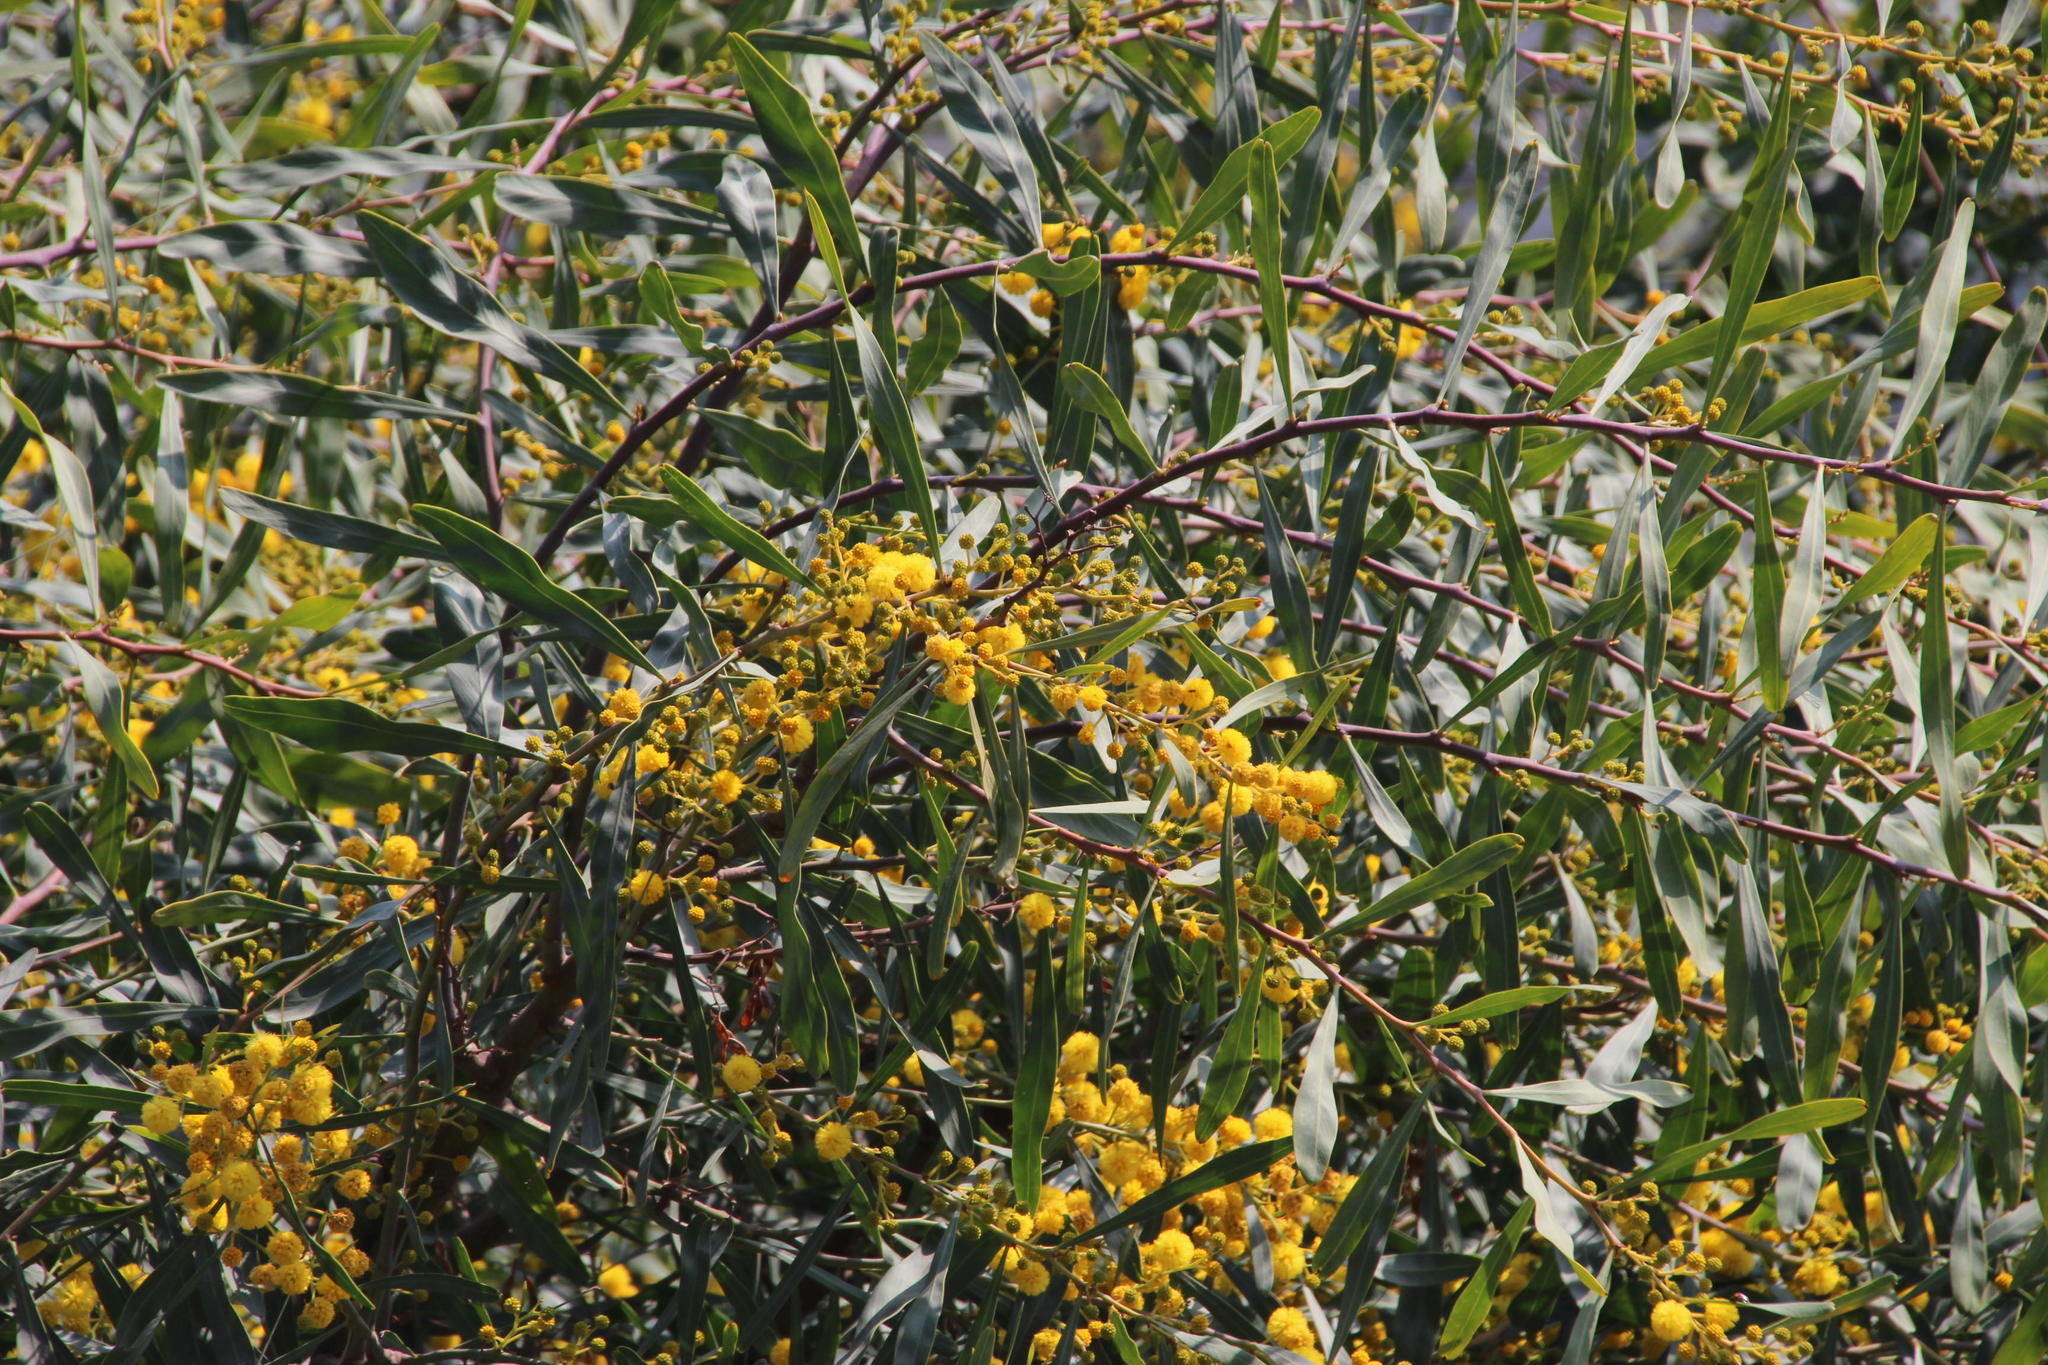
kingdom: Plantae
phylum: Tracheophyta
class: Magnoliopsida
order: Fabales
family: Fabaceae
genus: Acacia
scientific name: Acacia saligna
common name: Orange wattle
